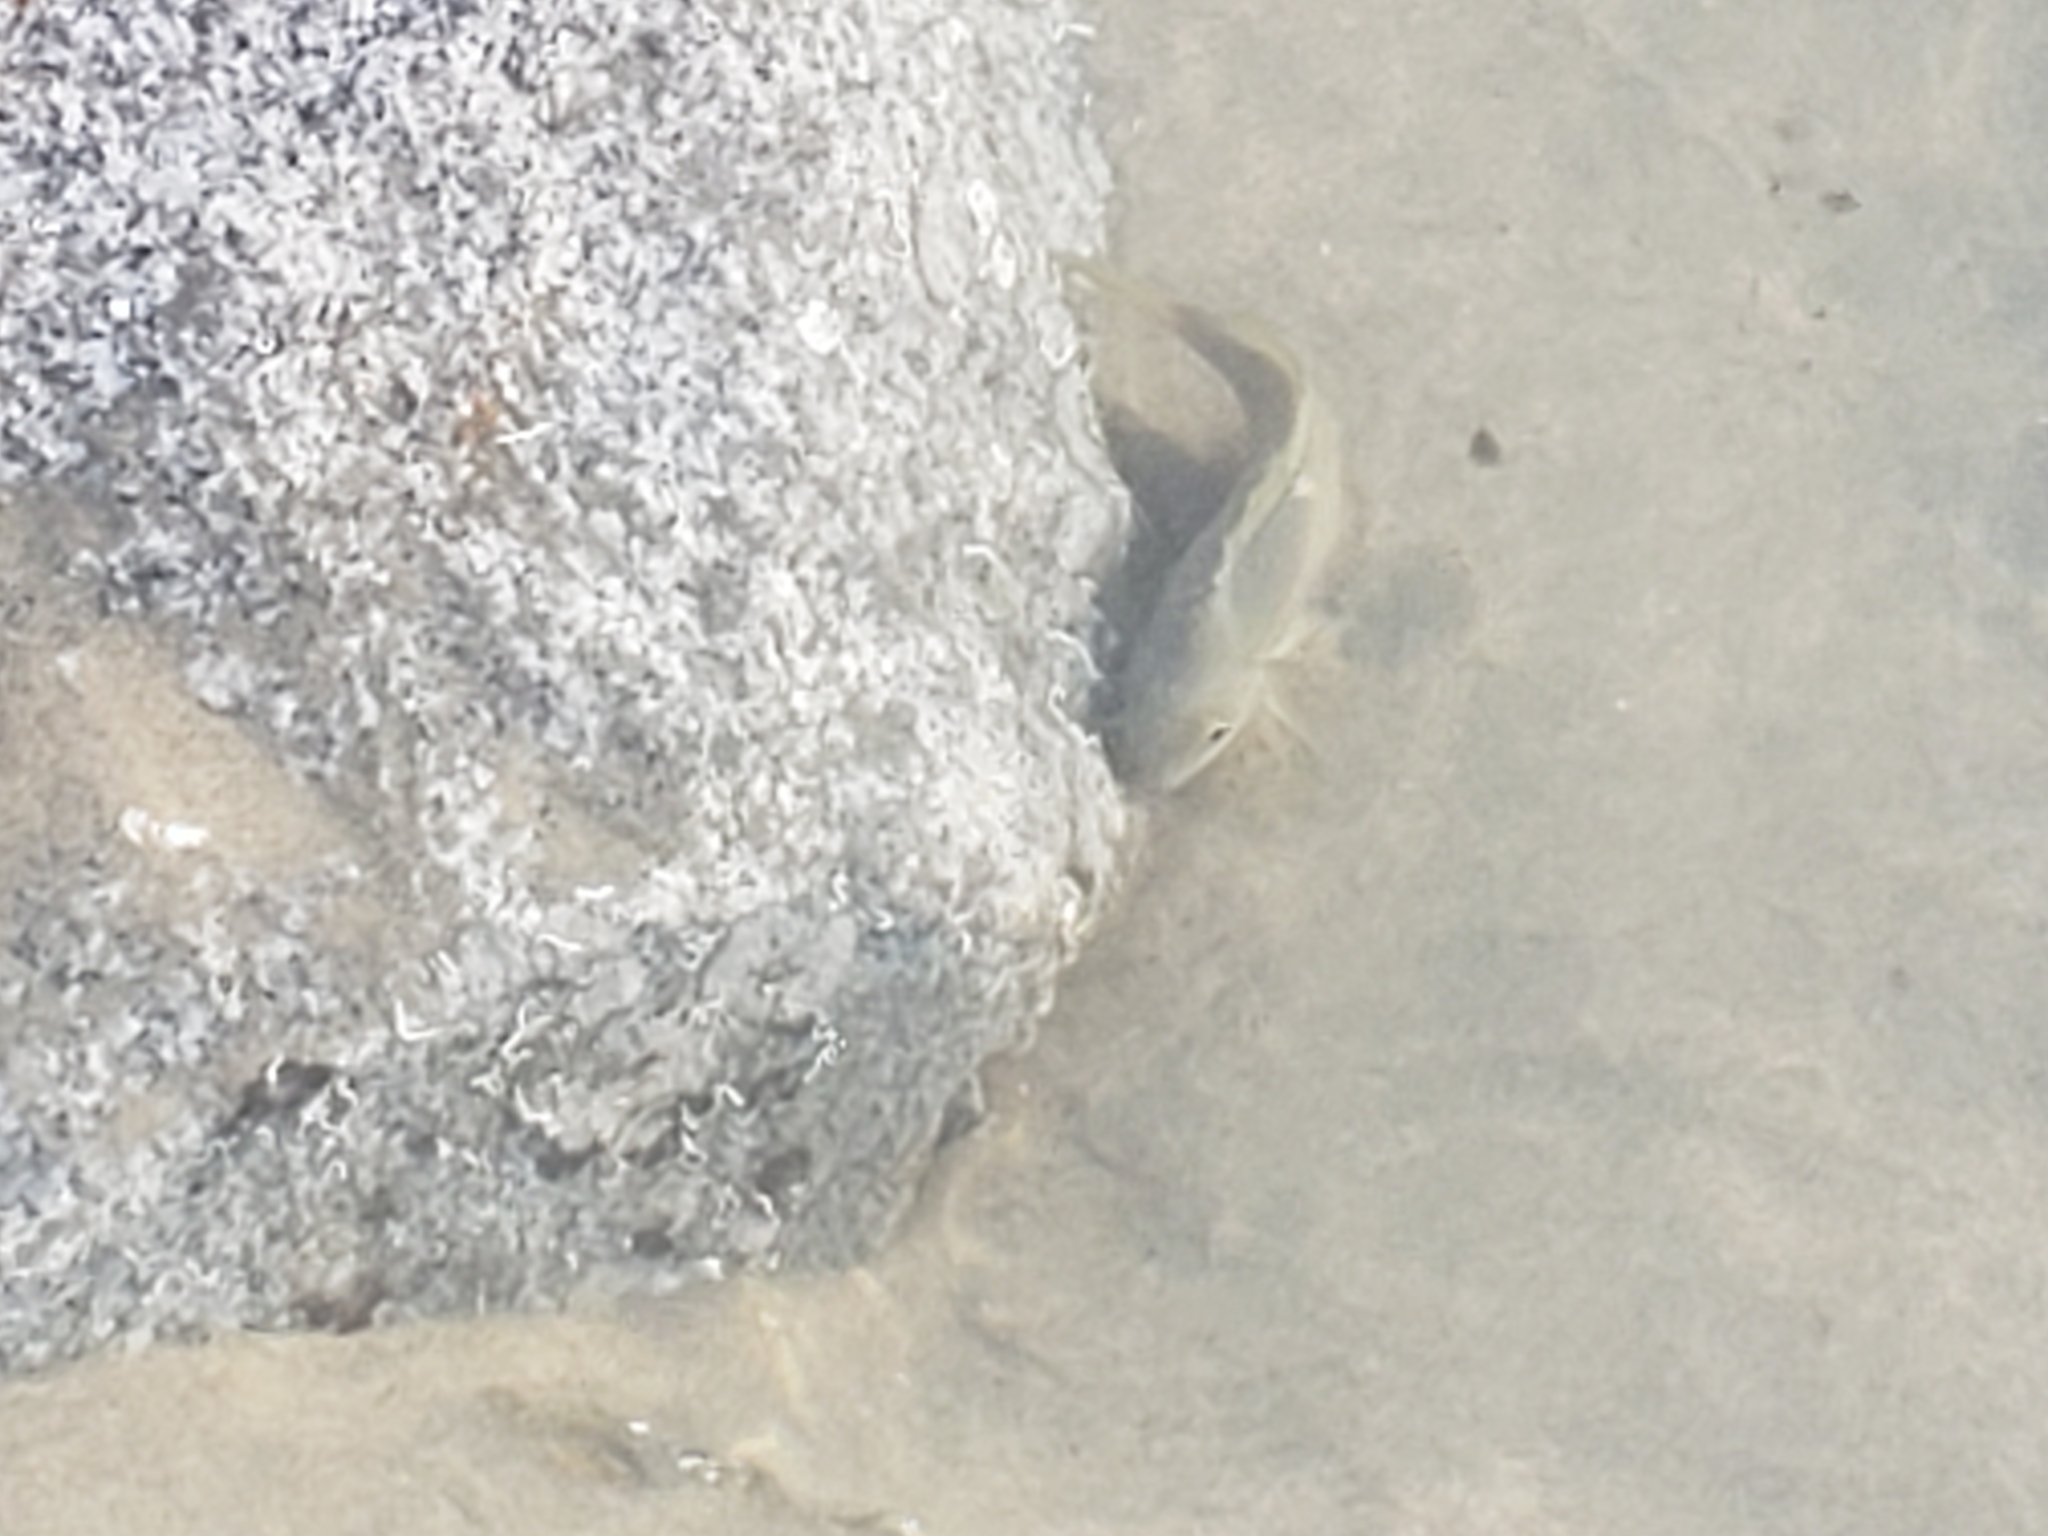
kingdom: Animalia
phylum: Chordata
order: Perciformes
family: Kyphosidae
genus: Girella
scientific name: Girella nigricans
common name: Opaleye
